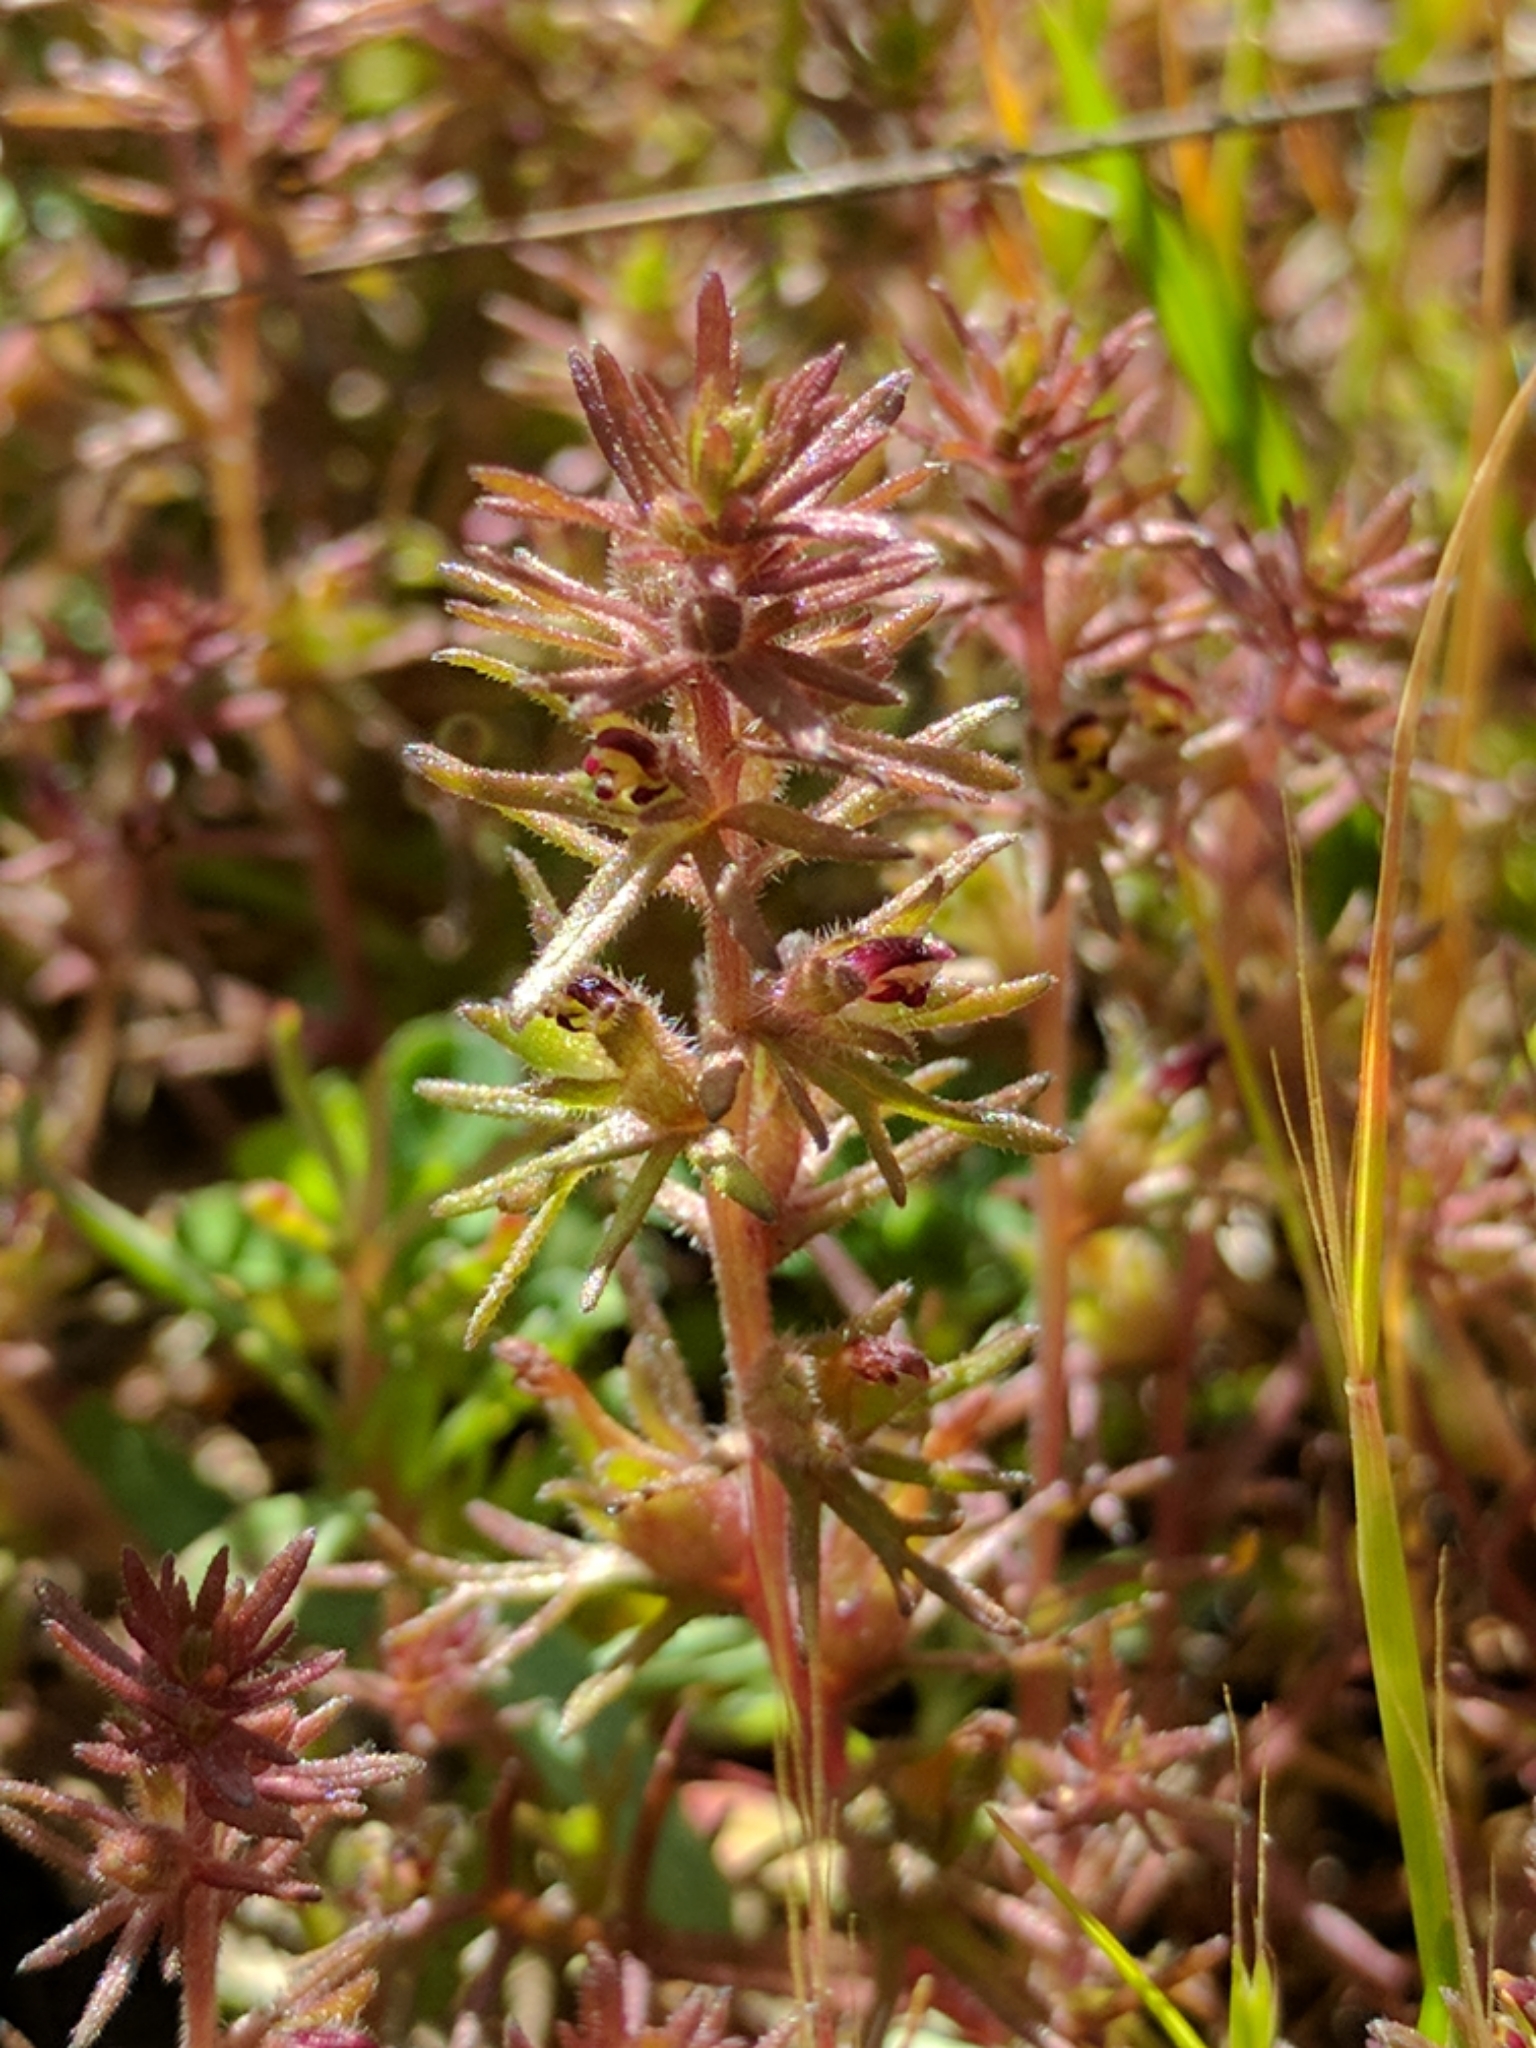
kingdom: Plantae
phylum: Tracheophyta
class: Magnoliopsida
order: Lamiales
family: Orobanchaceae
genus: Triphysaria
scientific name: Triphysaria pusilla
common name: Dwarf false owl-clover
